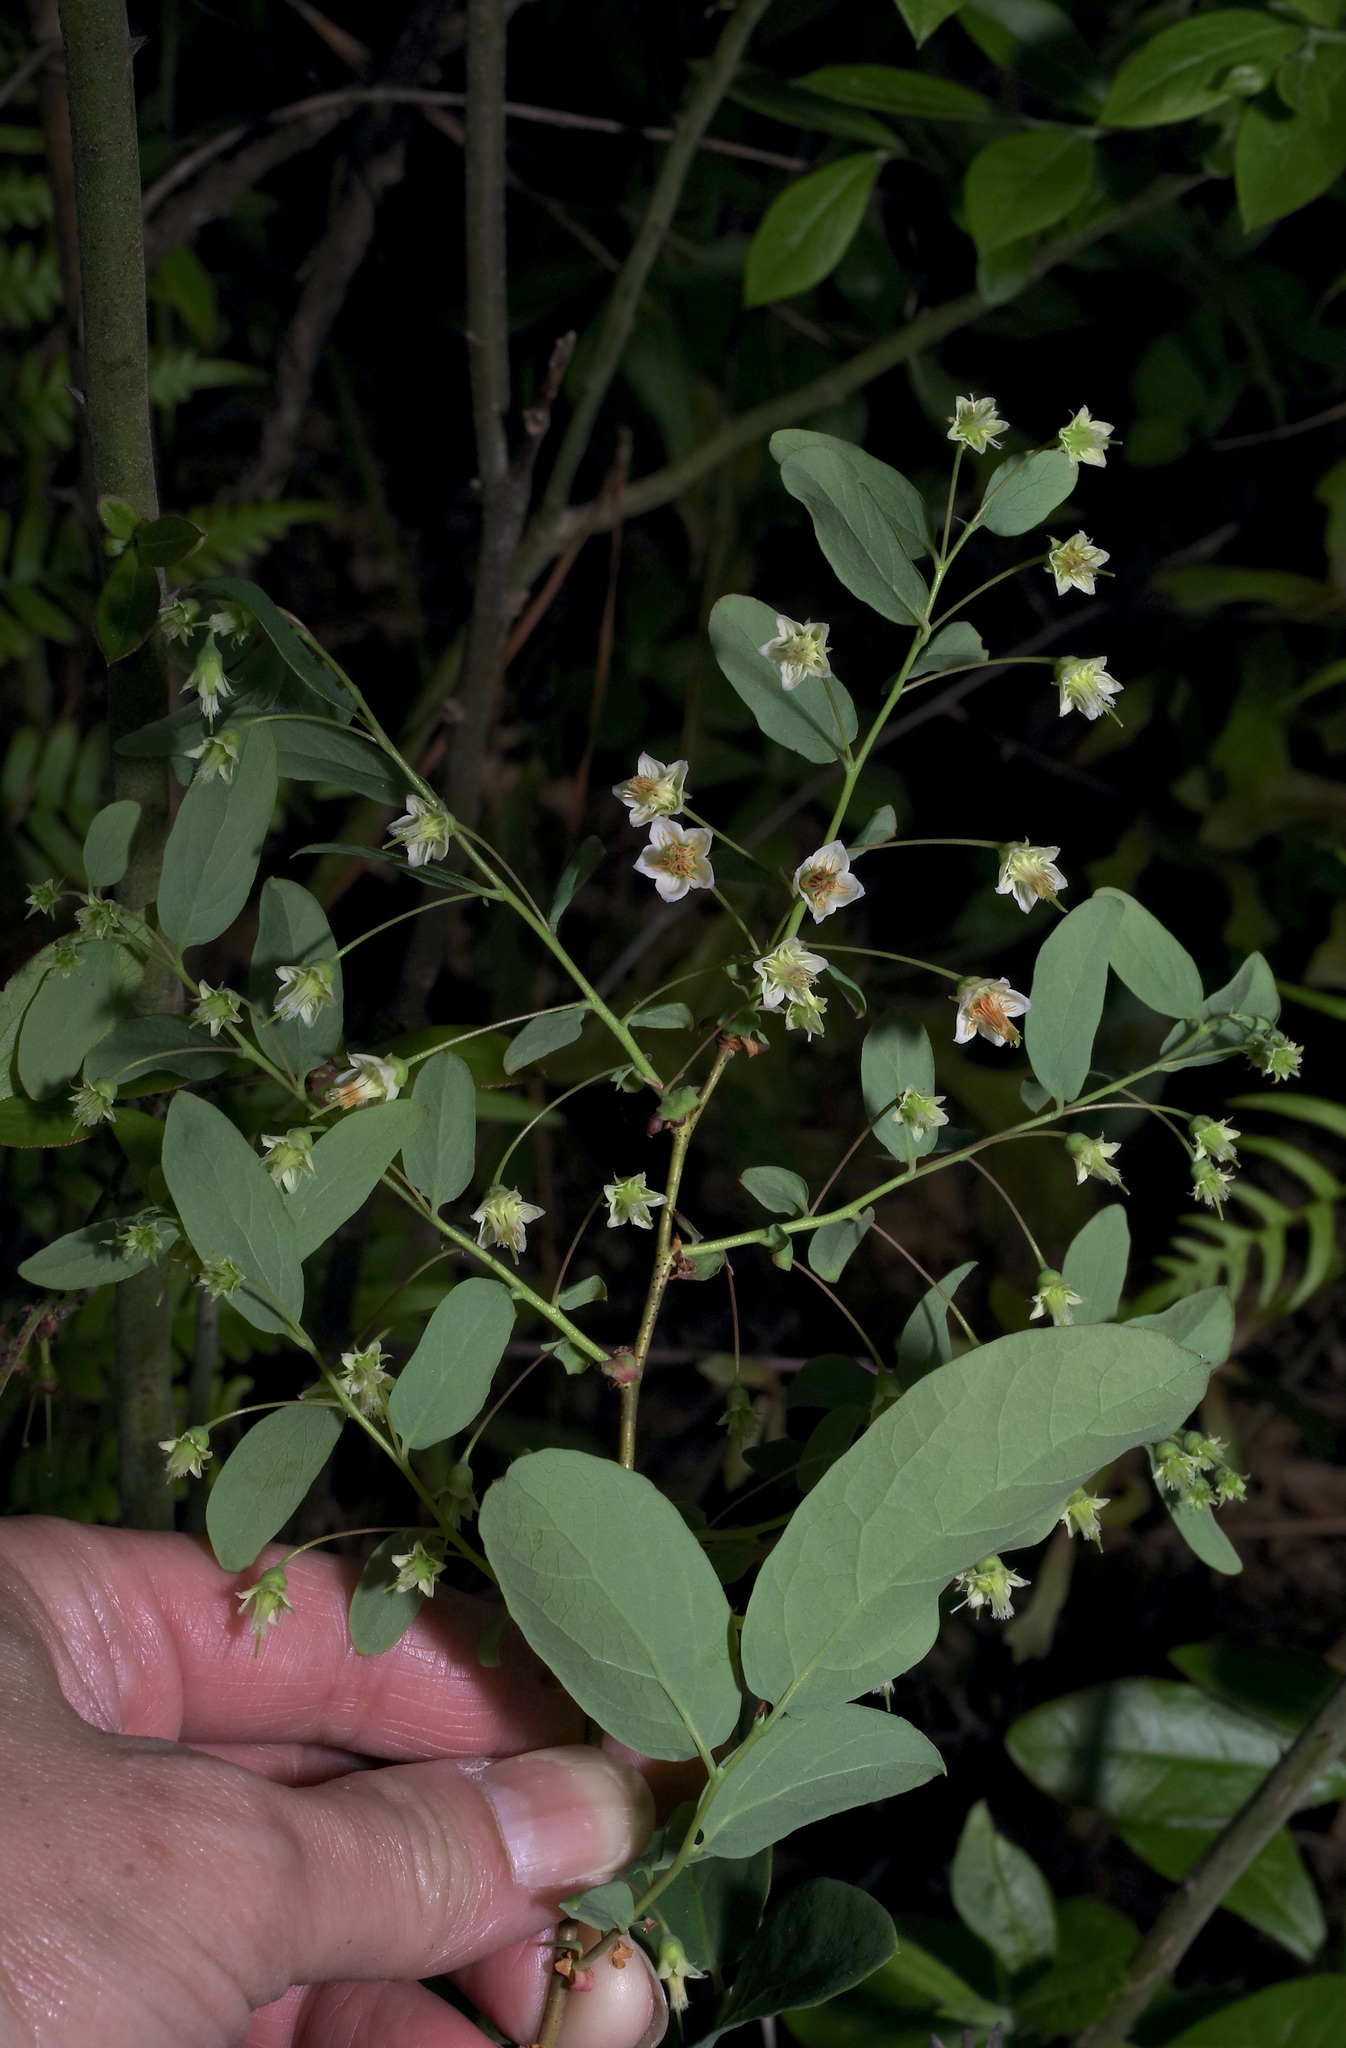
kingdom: Plantae
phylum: Tracheophyta
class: Magnoliopsida
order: Ericales
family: Ericaceae
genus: Vaccinium
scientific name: Vaccinium stamineum
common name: Deerberry
